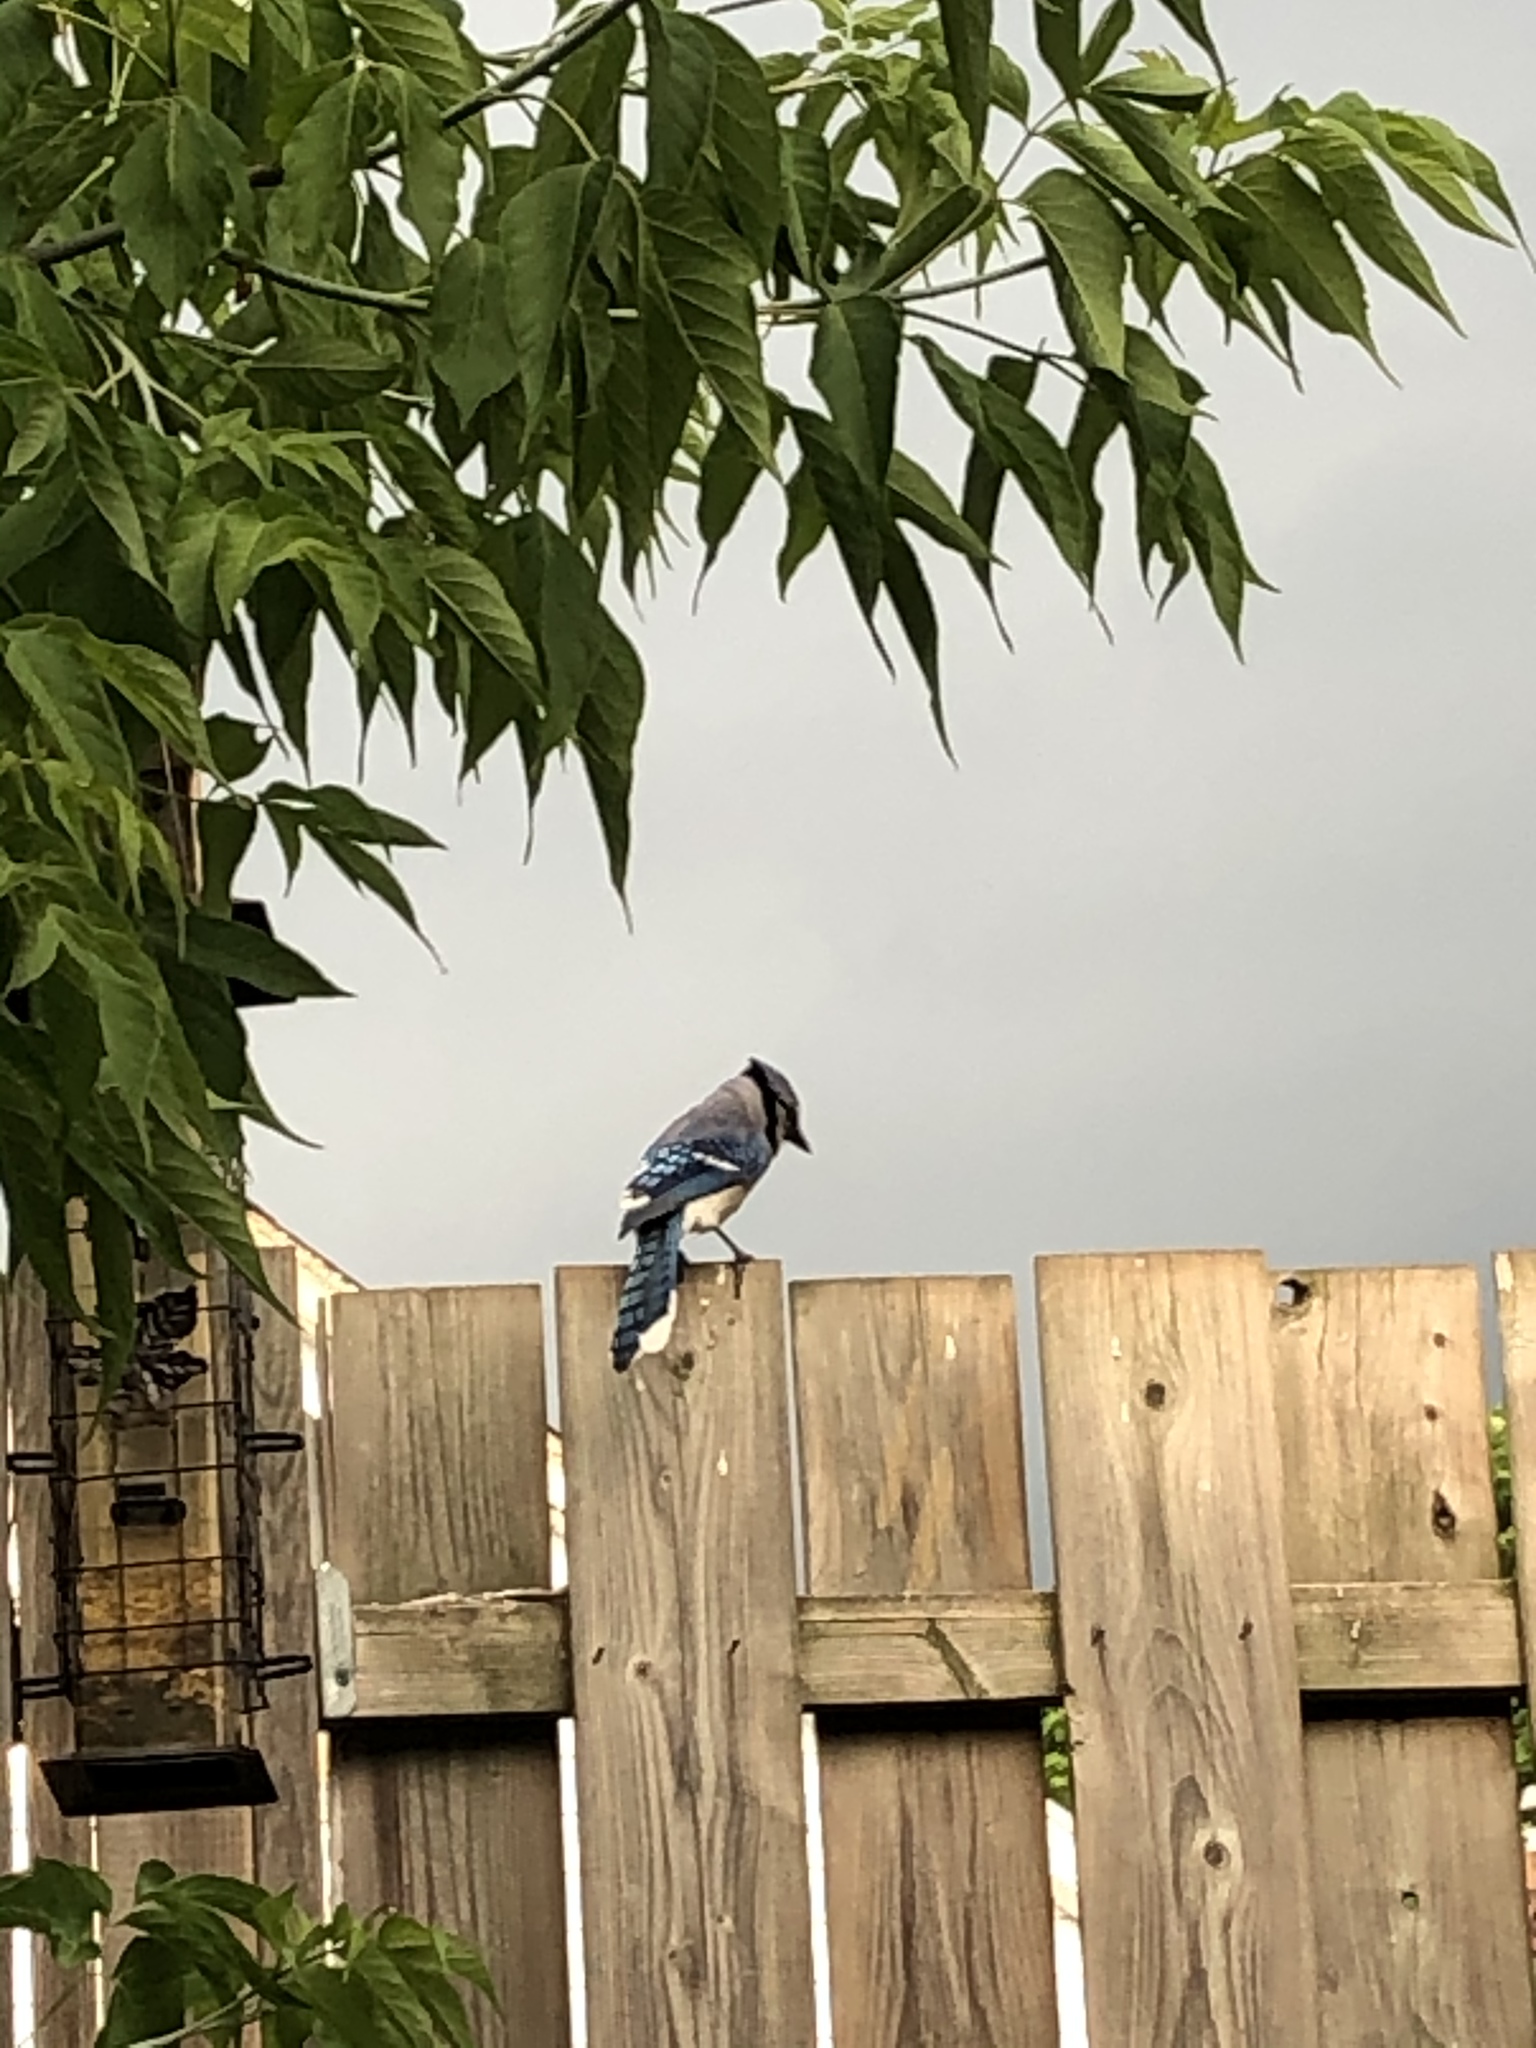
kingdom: Animalia
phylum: Chordata
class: Aves
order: Passeriformes
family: Corvidae
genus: Cyanocitta
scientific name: Cyanocitta cristata
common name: Blue jay
